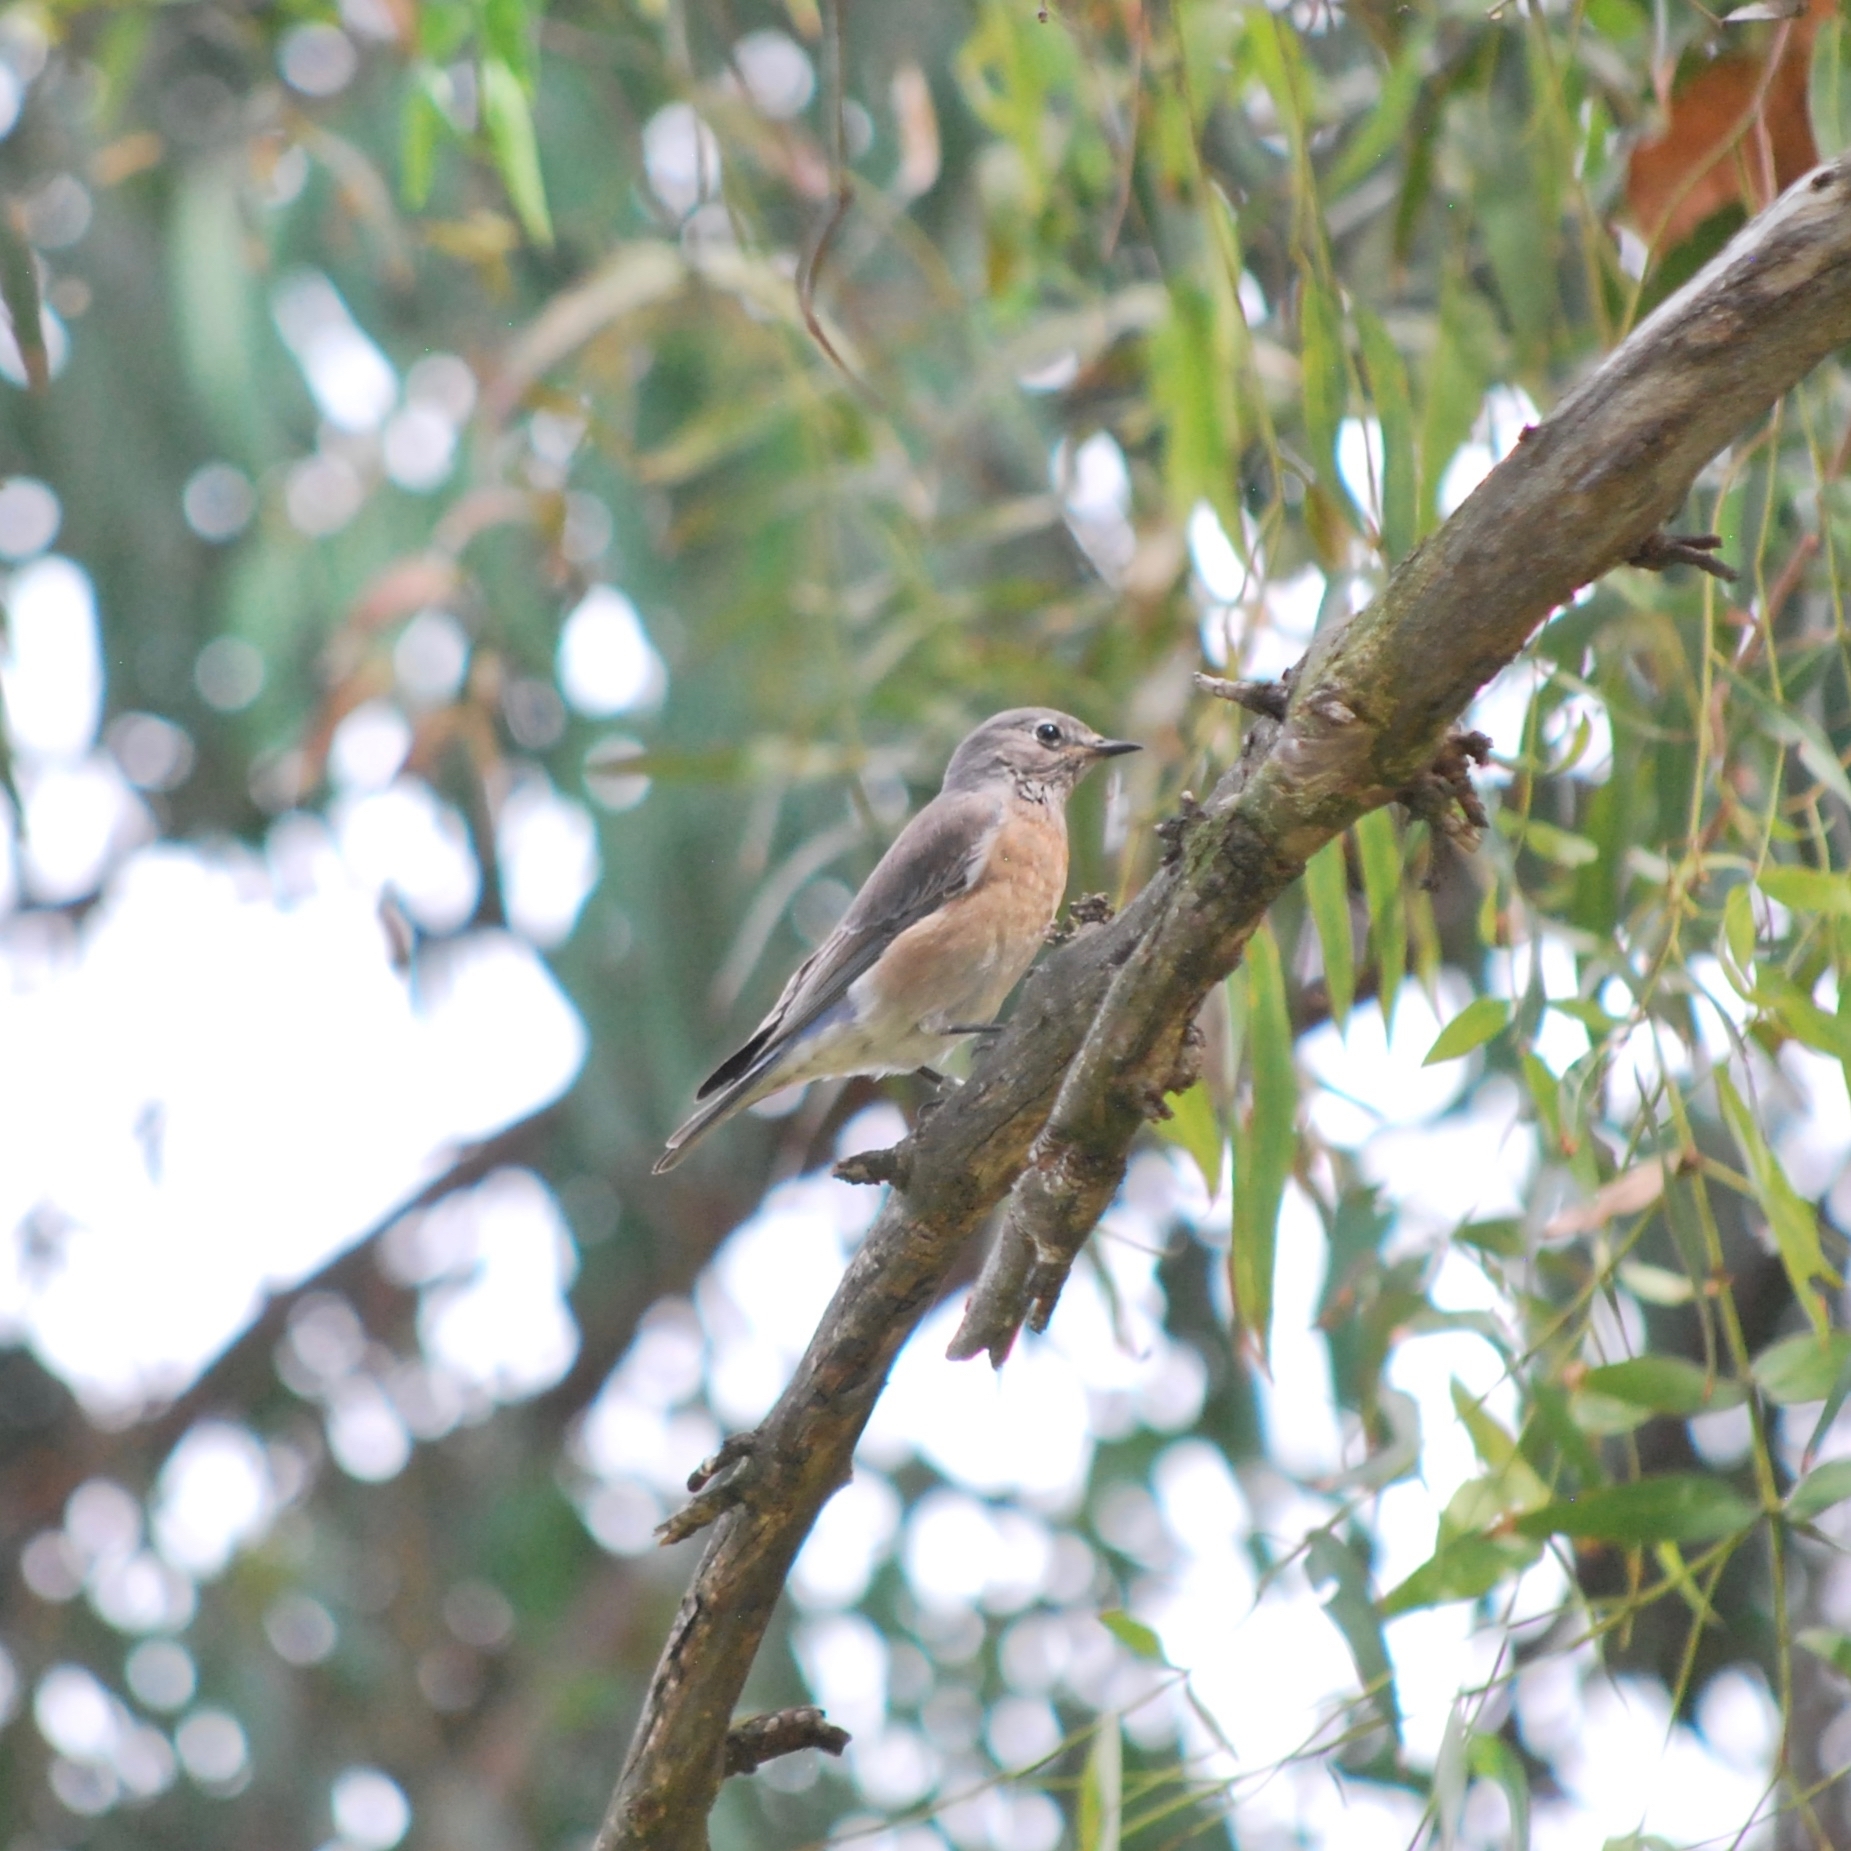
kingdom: Animalia
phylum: Chordata
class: Aves
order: Passeriformes
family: Turdidae
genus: Sialia
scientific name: Sialia mexicana
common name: Western bluebird
